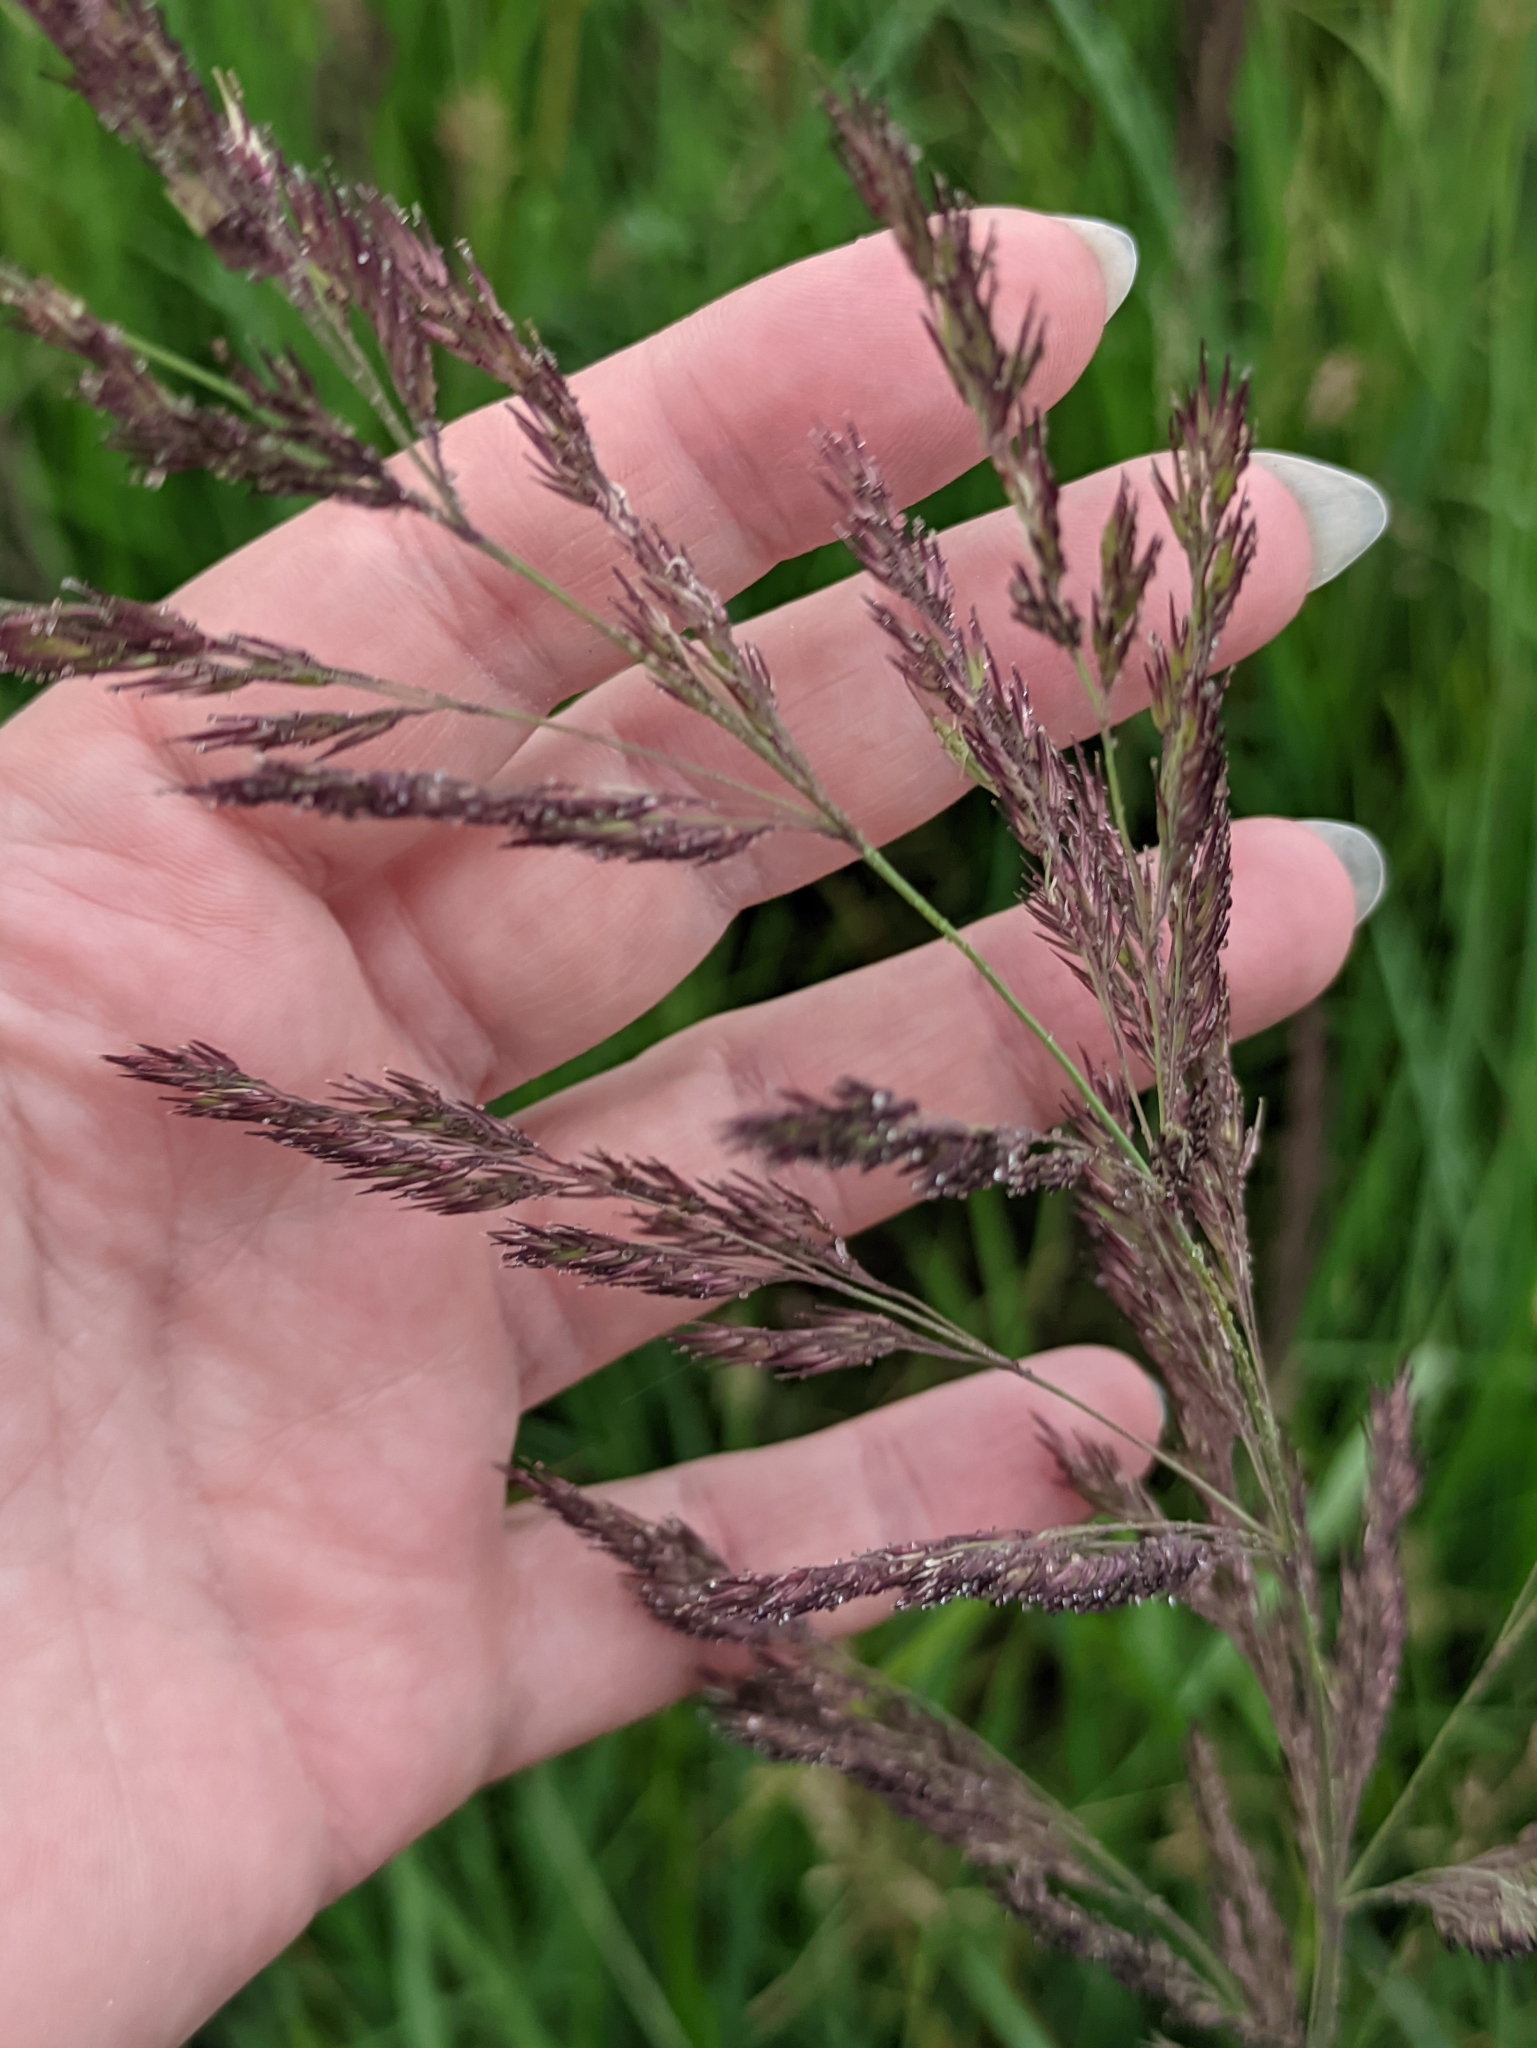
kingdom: Plantae
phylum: Tracheophyta
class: Liliopsida
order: Poales
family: Poaceae
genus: Calamagrostis
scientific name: Calamagrostis epigejos
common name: Wood small-reed
